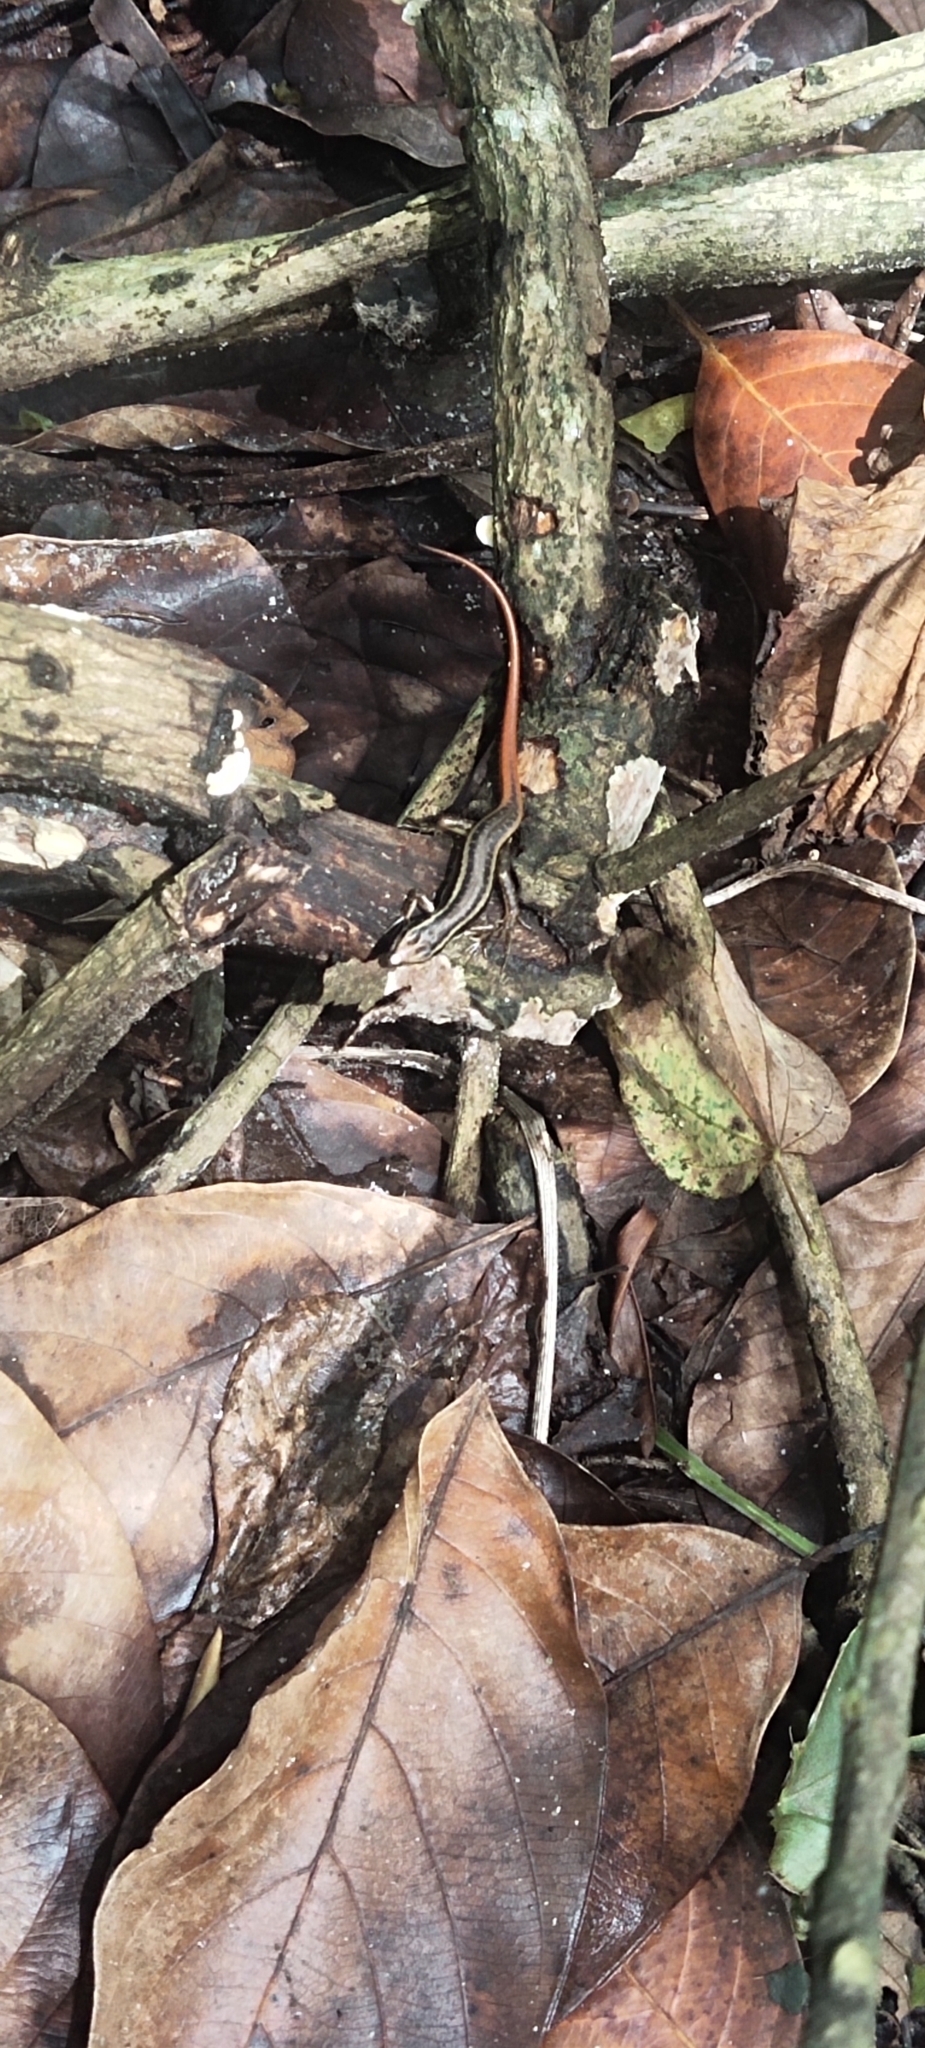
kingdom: Animalia
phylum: Chordata
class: Squamata
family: Scincidae
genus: Sphenomorphus
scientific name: Sphenomorphus dussumieri
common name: Dussumier's forest skink
